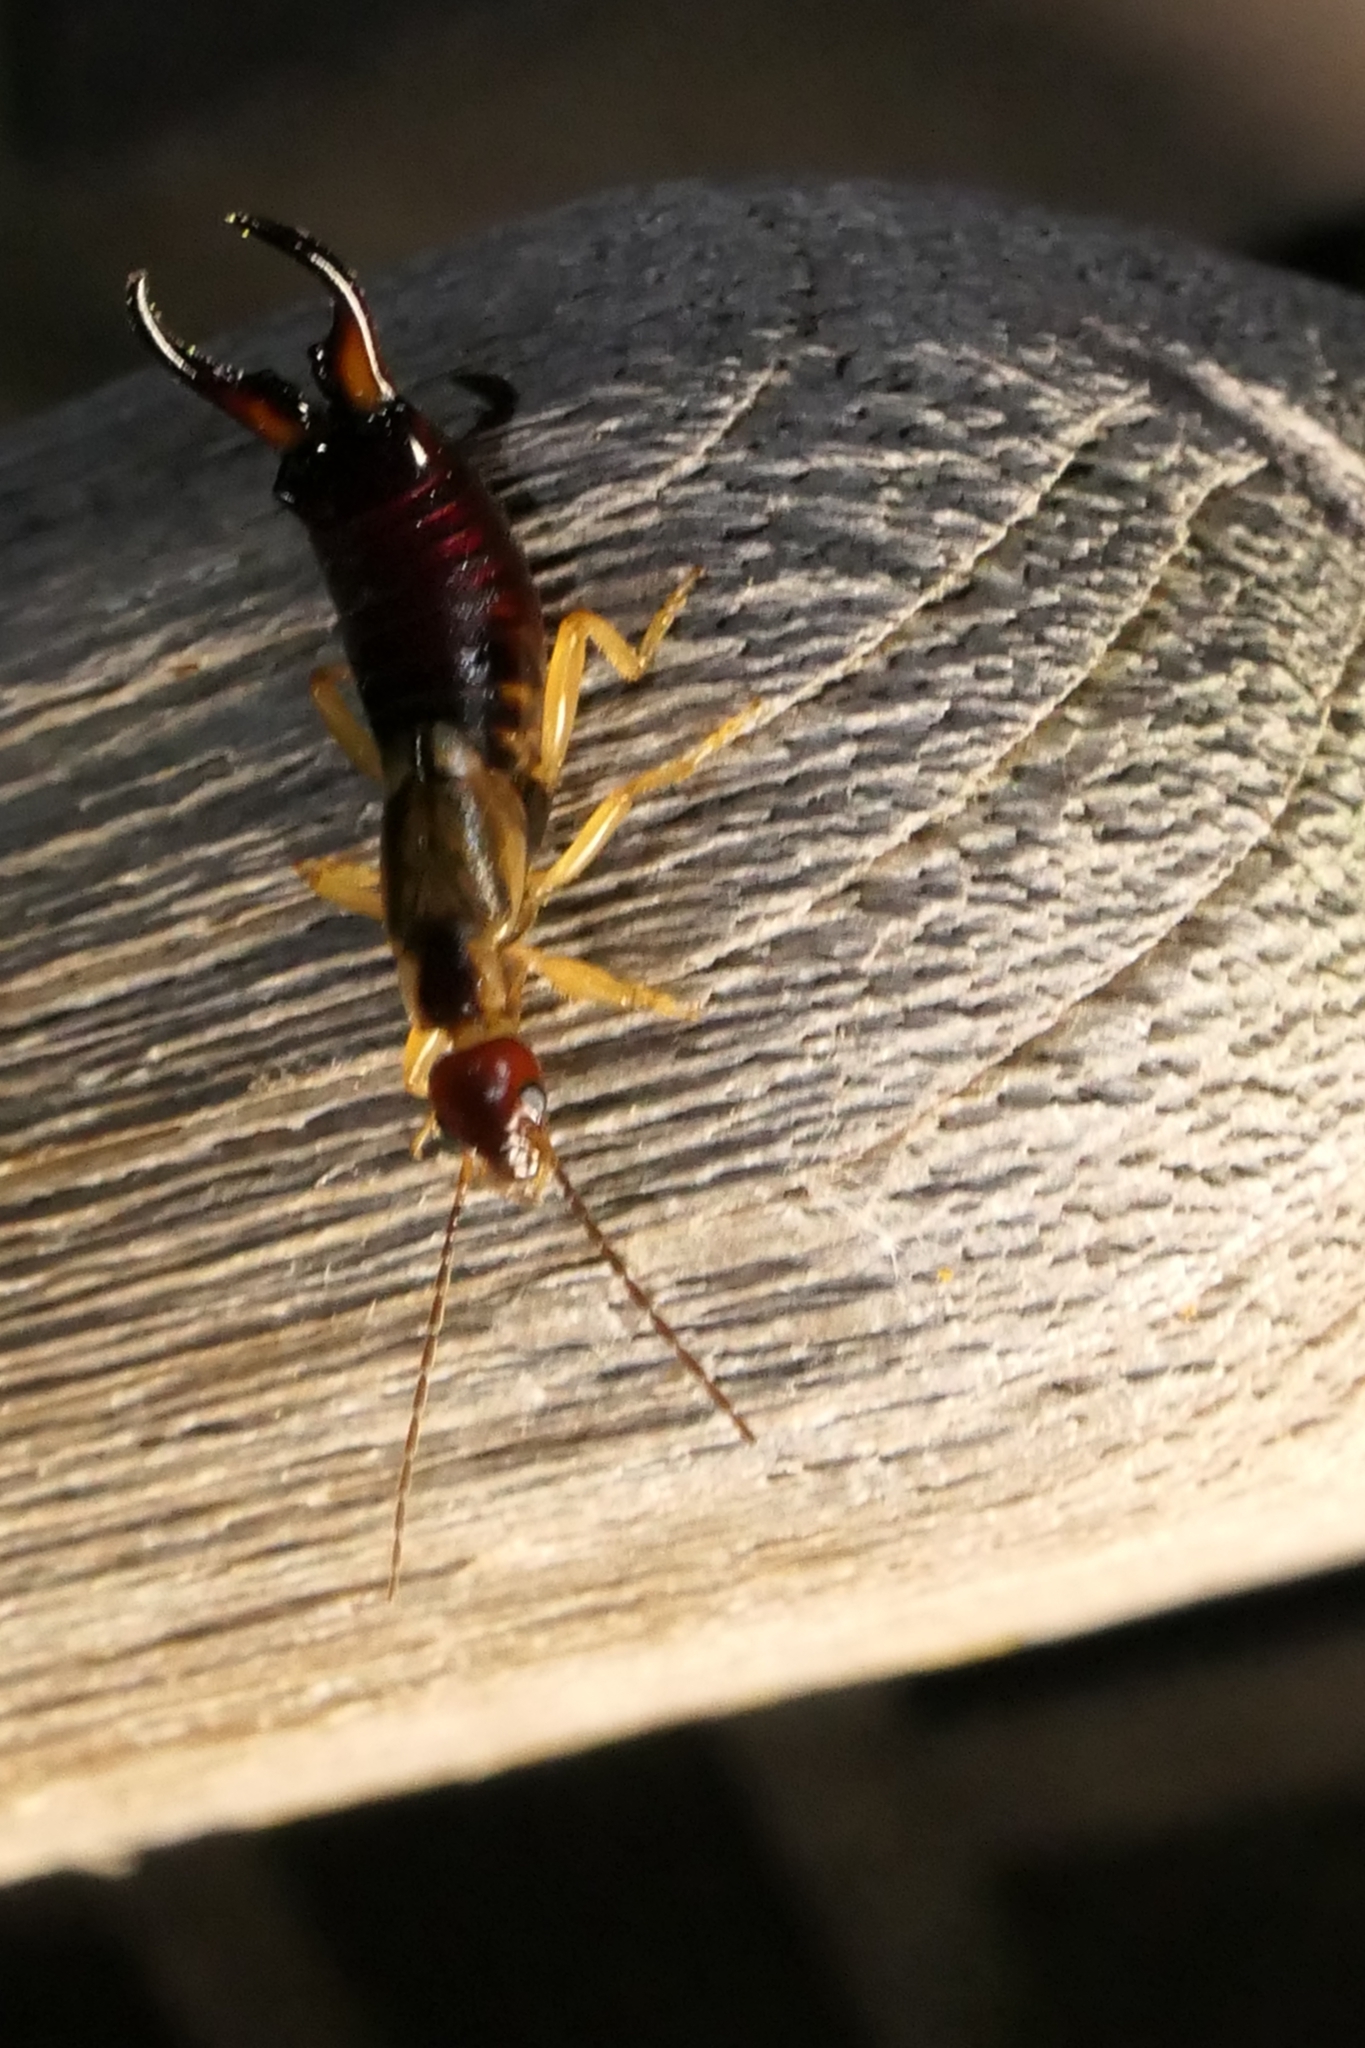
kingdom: Animalia
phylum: Arthropoda
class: Insecta
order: Dermaptera
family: Forficulidae
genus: Forficula
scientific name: Forficula
